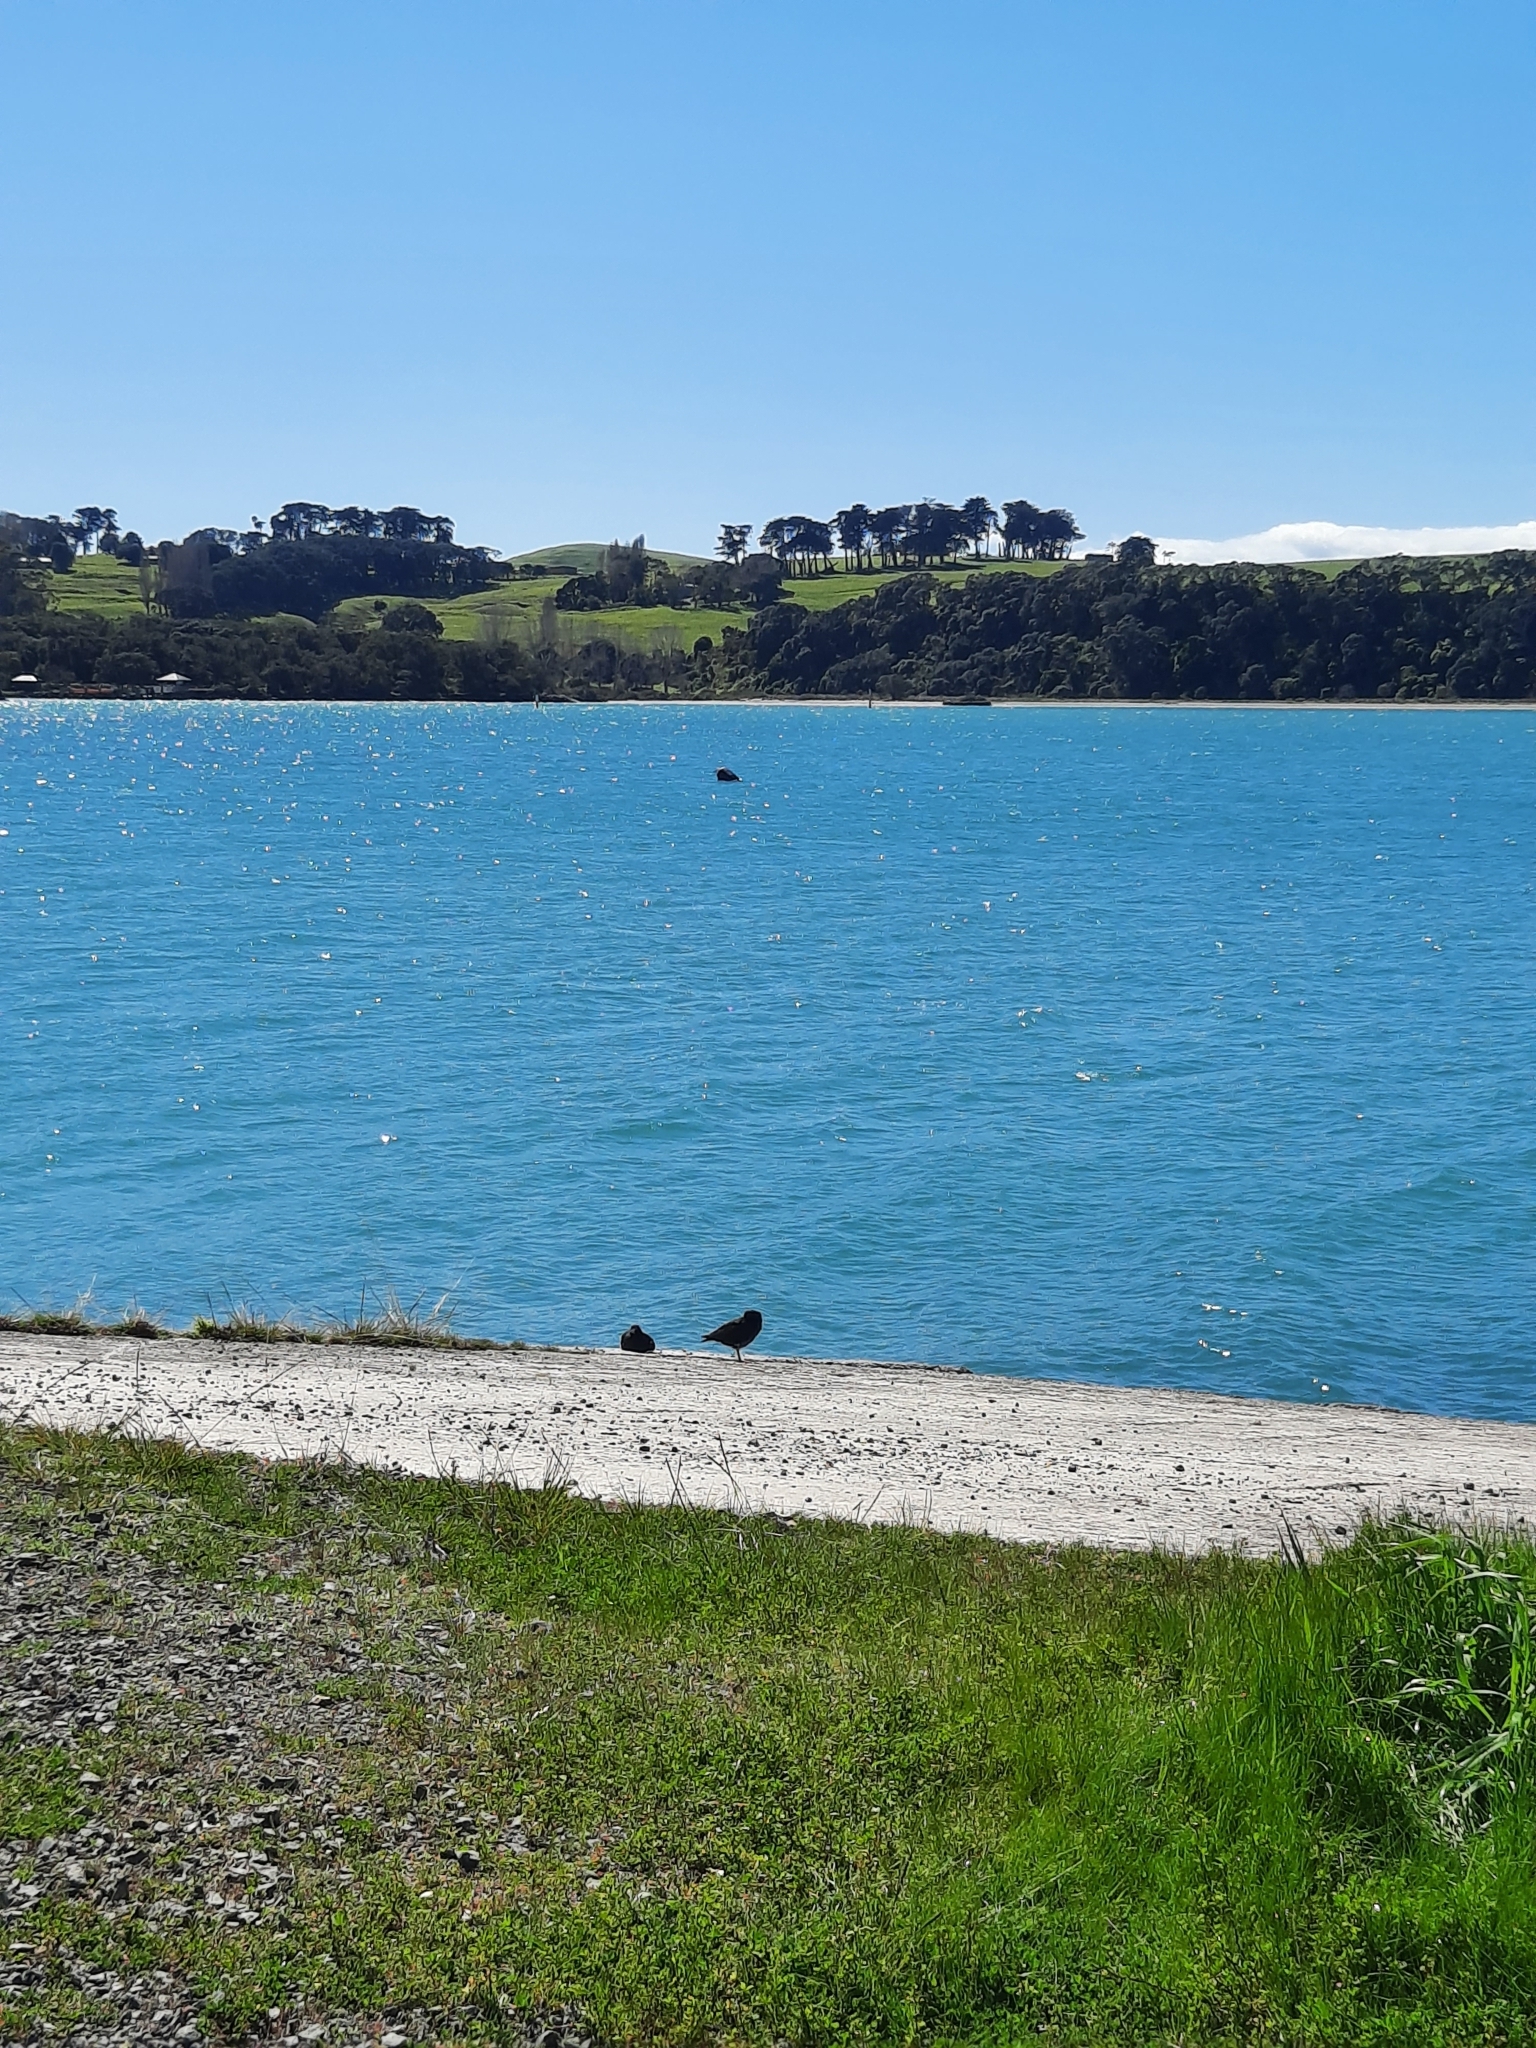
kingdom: Animalia
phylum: Chordata
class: Aves
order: Charadriiformes
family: Haematopodidae
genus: Haematopus
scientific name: Haematopus unicolor
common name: Variable oystercatcher
